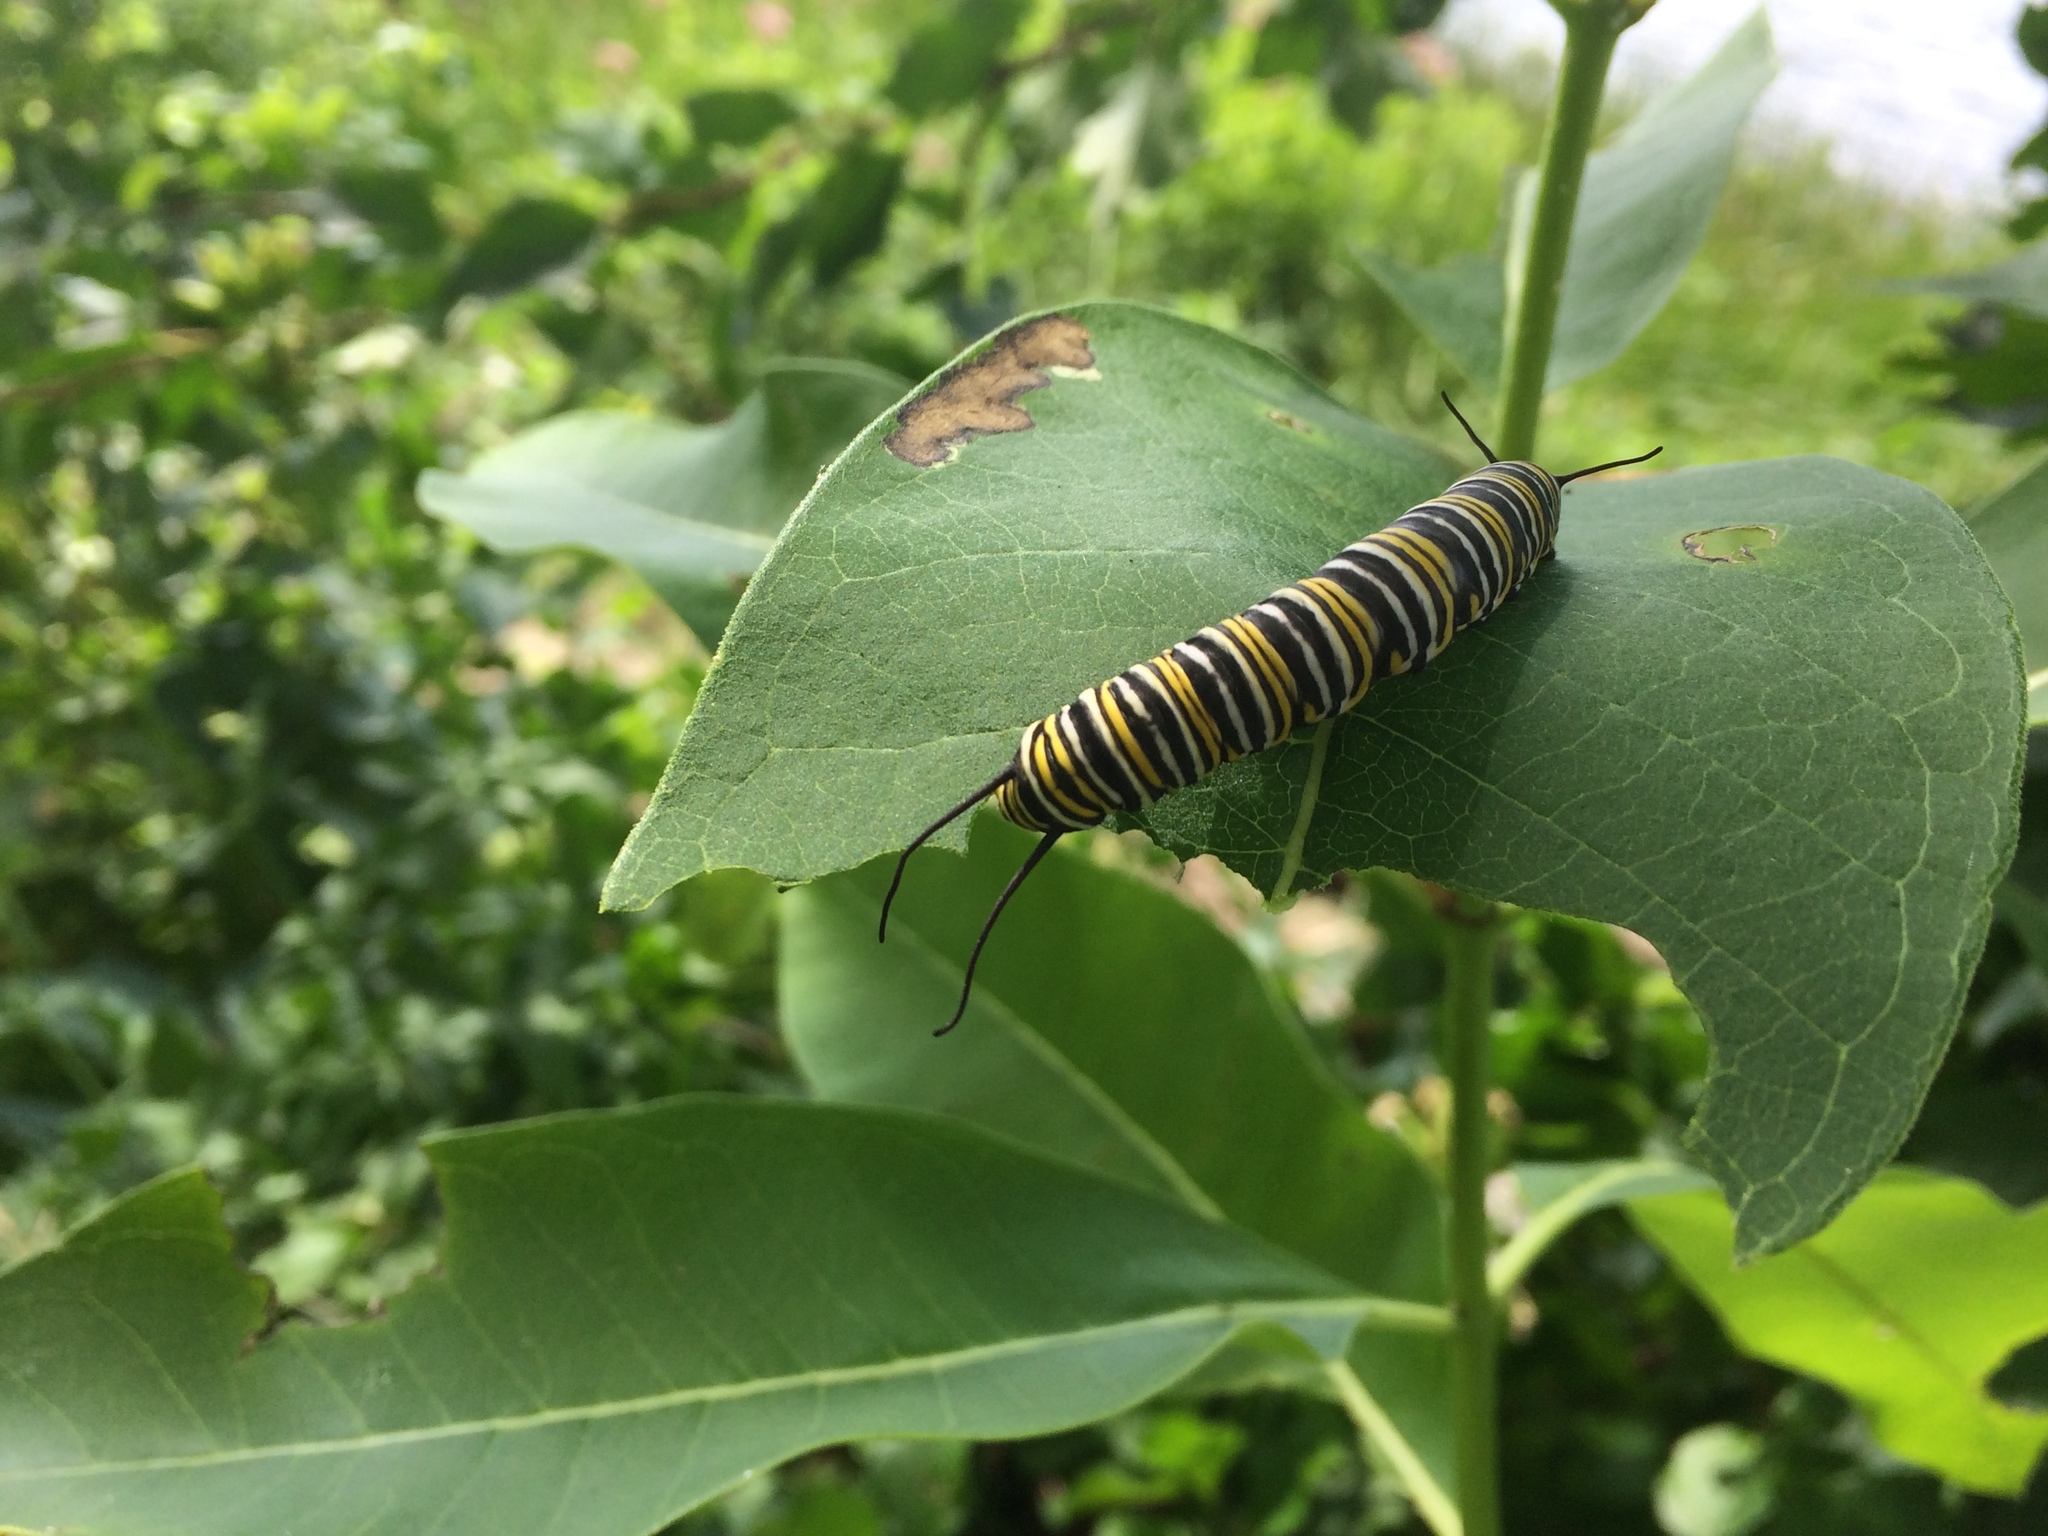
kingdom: Animalia
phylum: Arthropoda
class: Insecta
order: Lepidoptera
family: Nymphalidae
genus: Danaus
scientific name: Danaus plexippus
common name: Monarch
